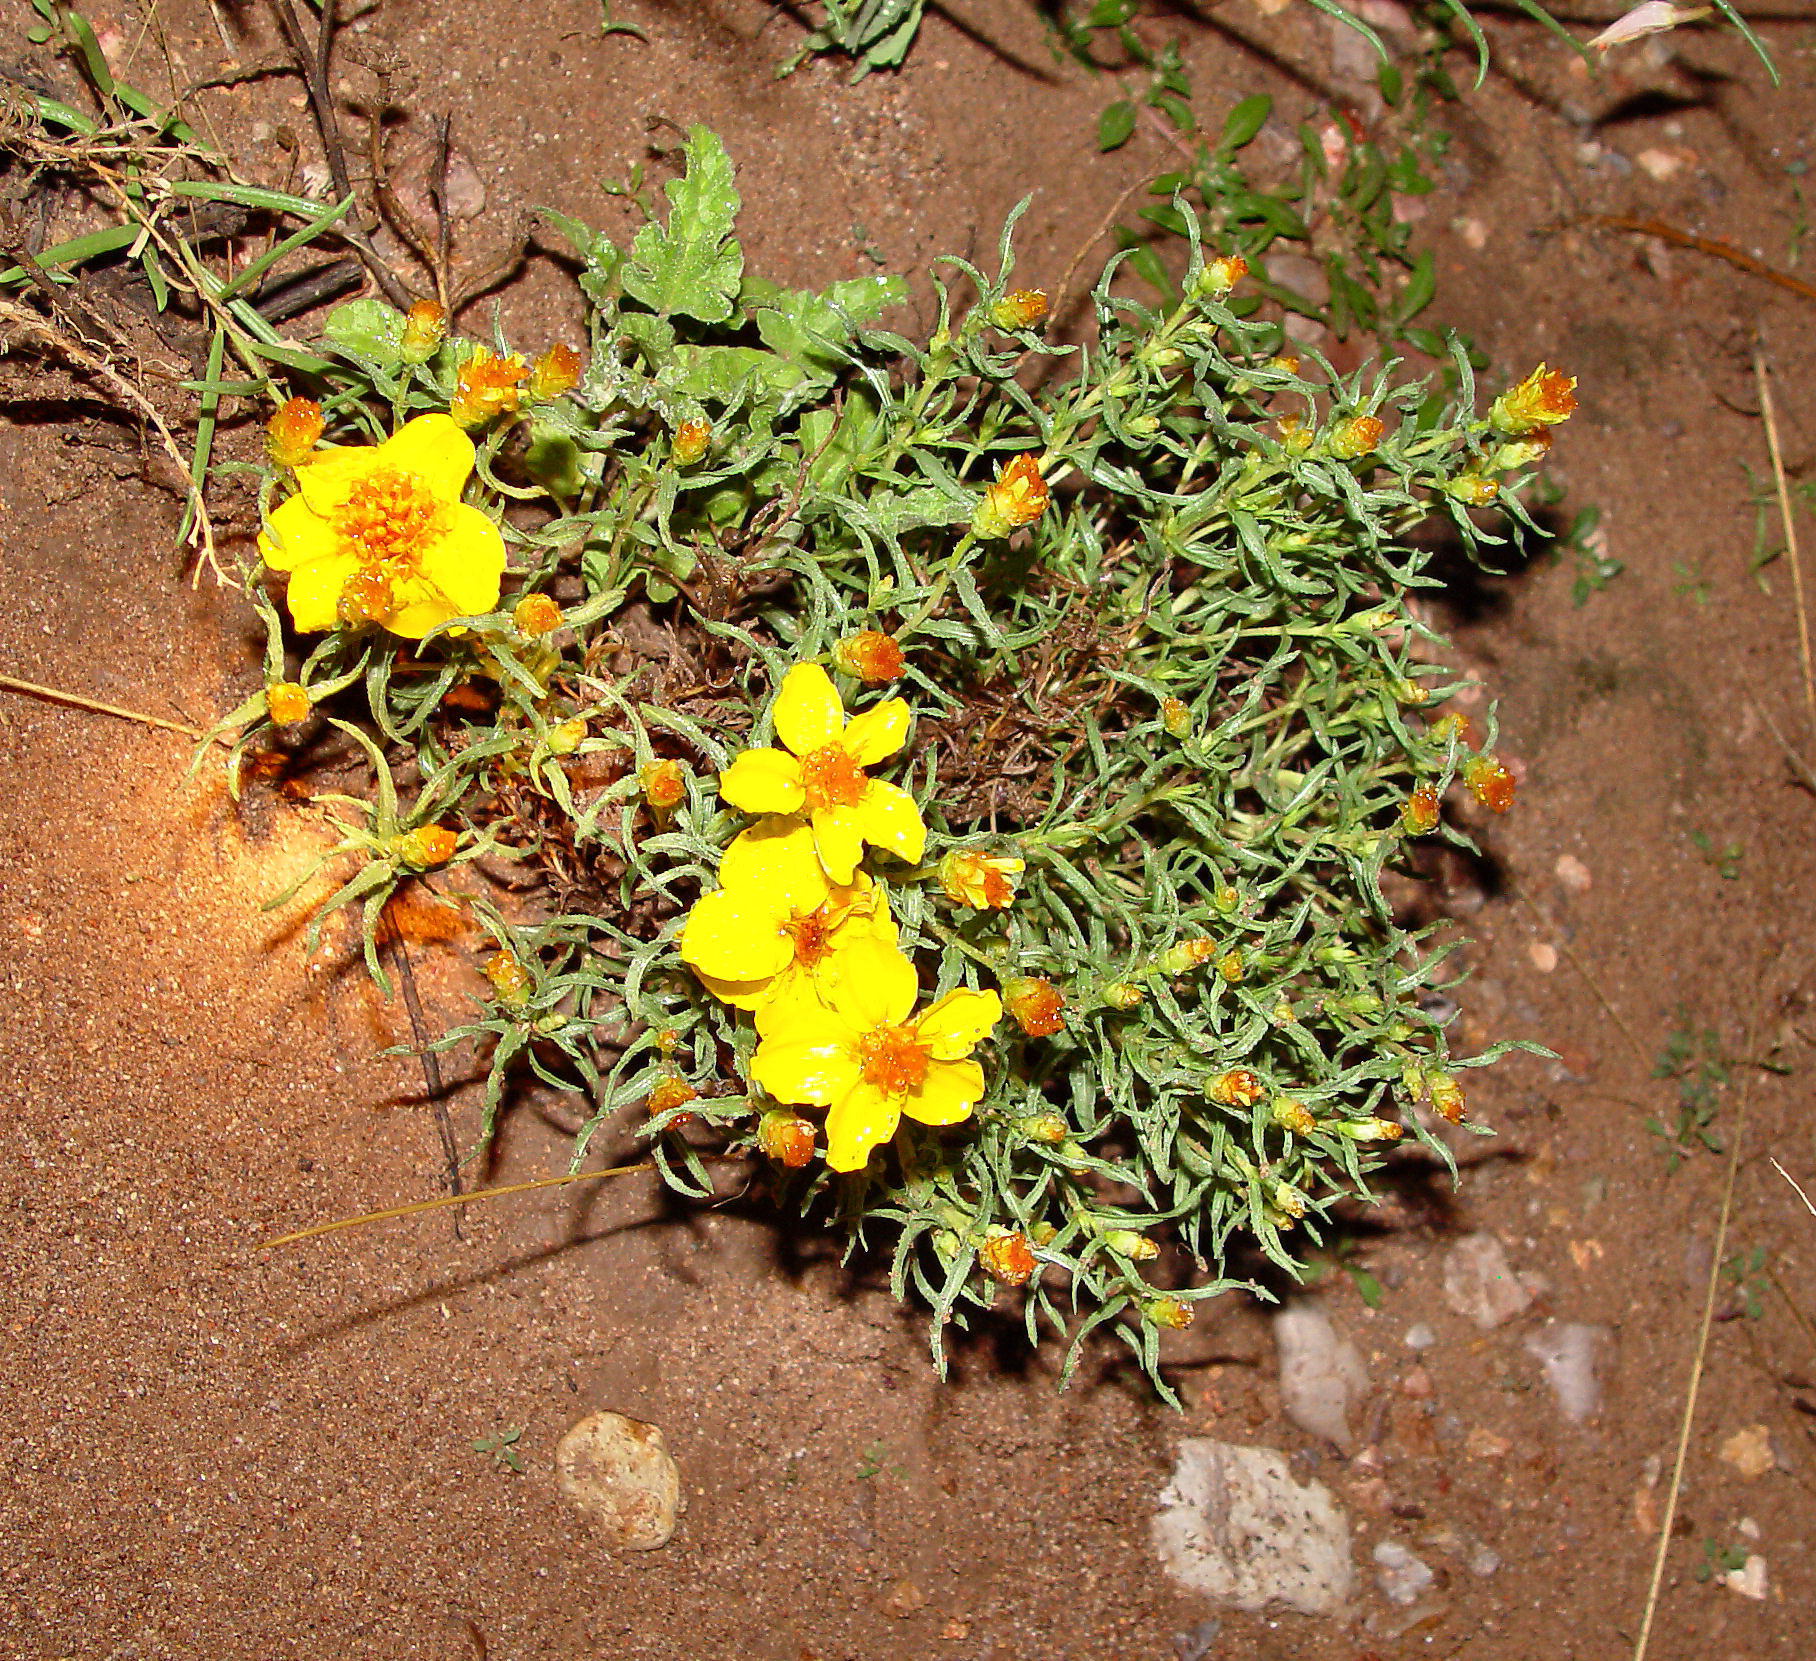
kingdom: Plantae
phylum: Tracheophyta
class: Magnoliopsida
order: Asterales
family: Asteraceae
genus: Zinnia
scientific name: Zinnia grandiflora
